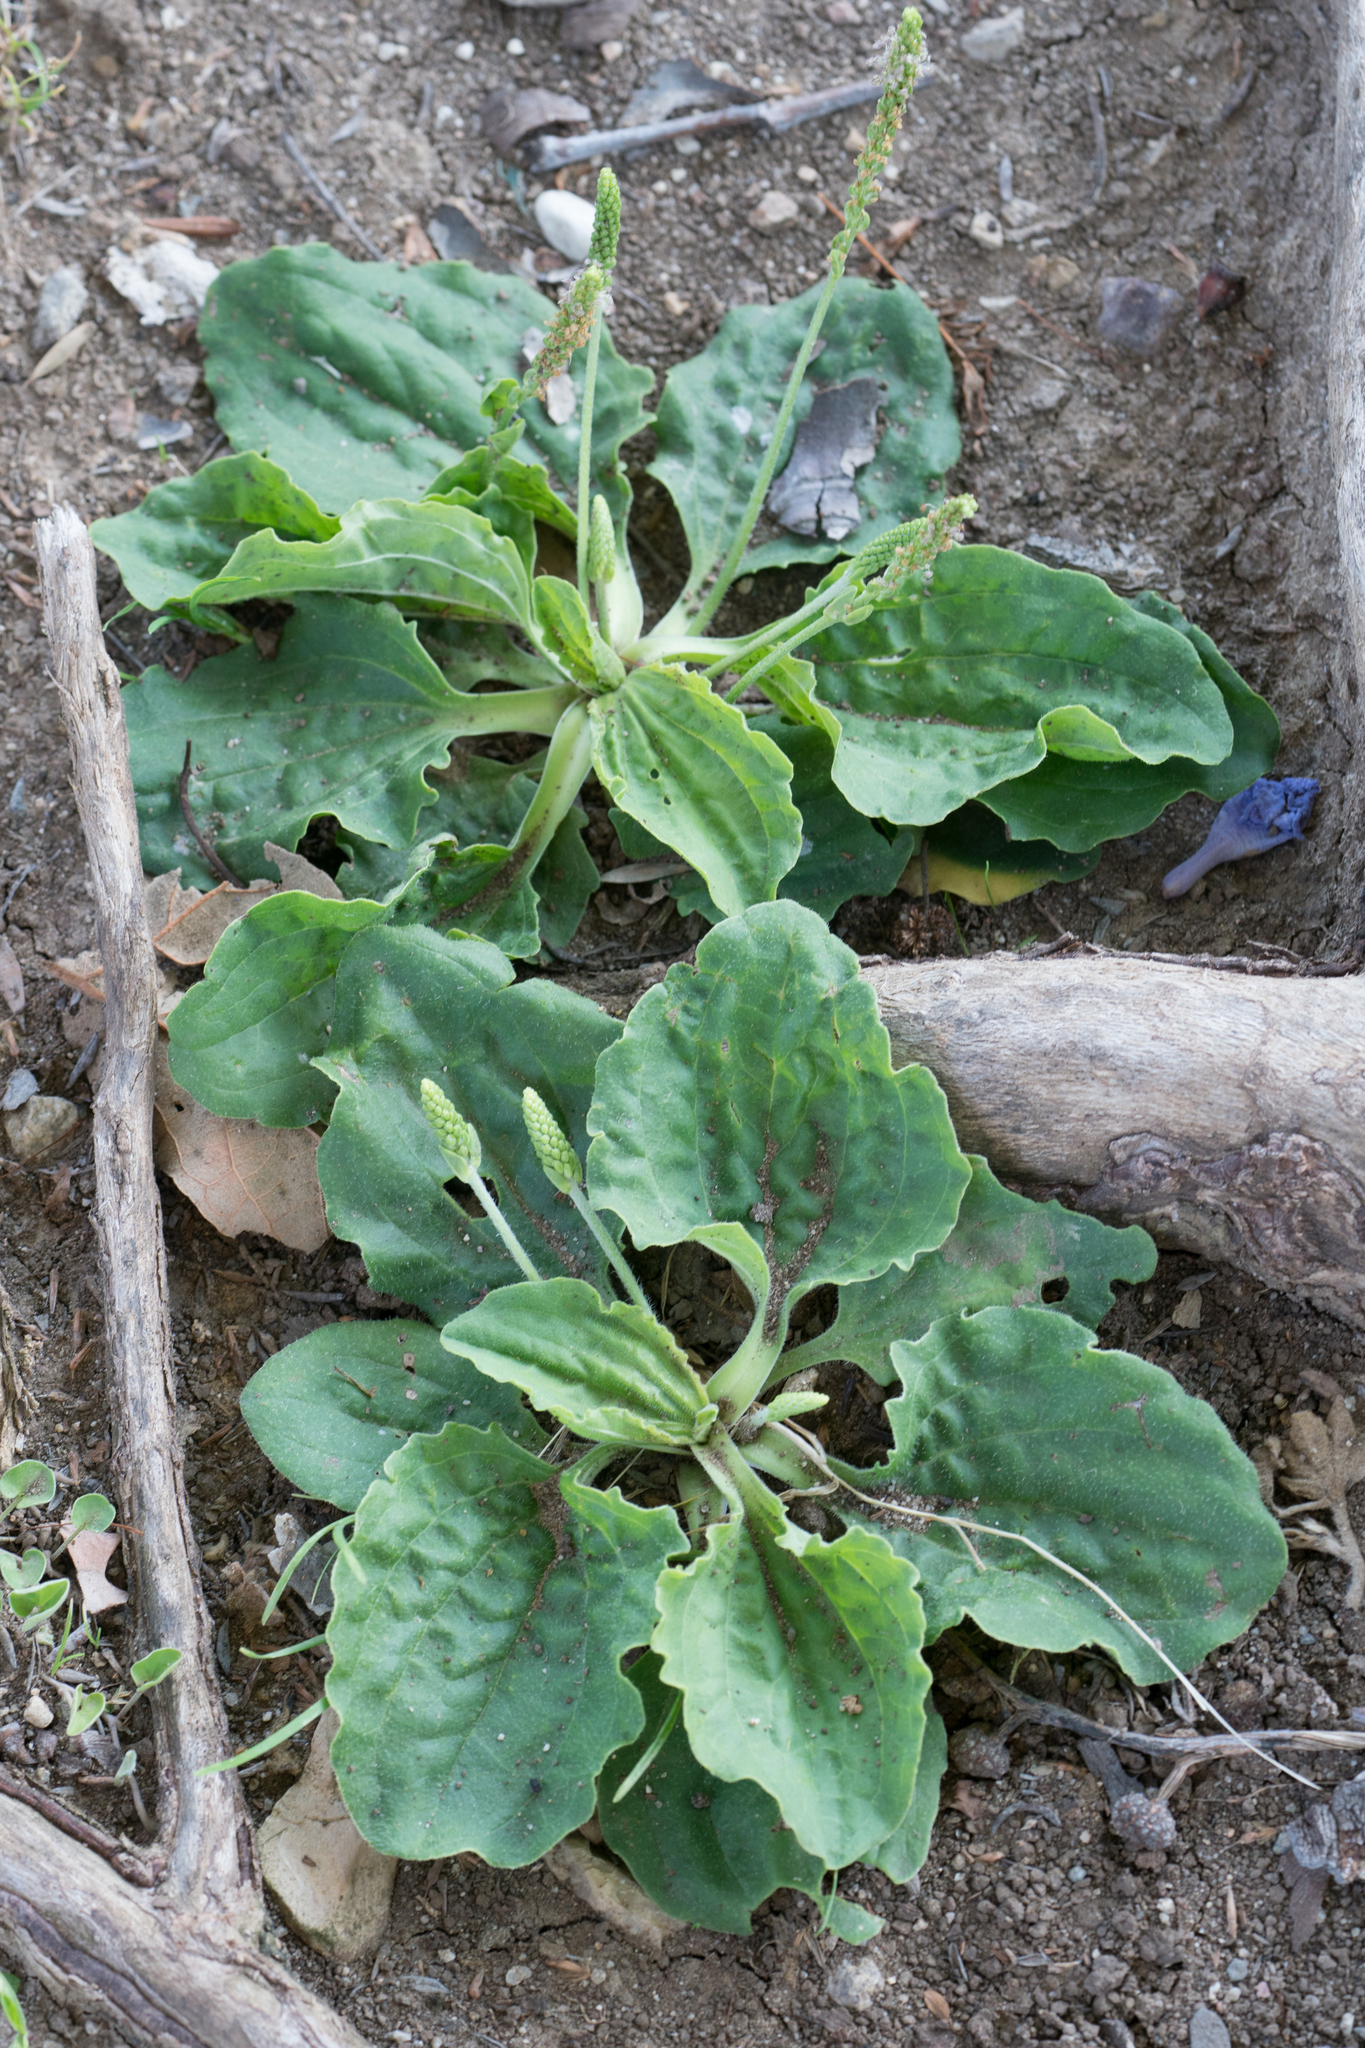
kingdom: Plantae
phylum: Tracheophyta
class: Magnoliopsida
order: Lamiales
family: Plantaginaceae
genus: Plantago
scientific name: Plantago major
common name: Common plantain
